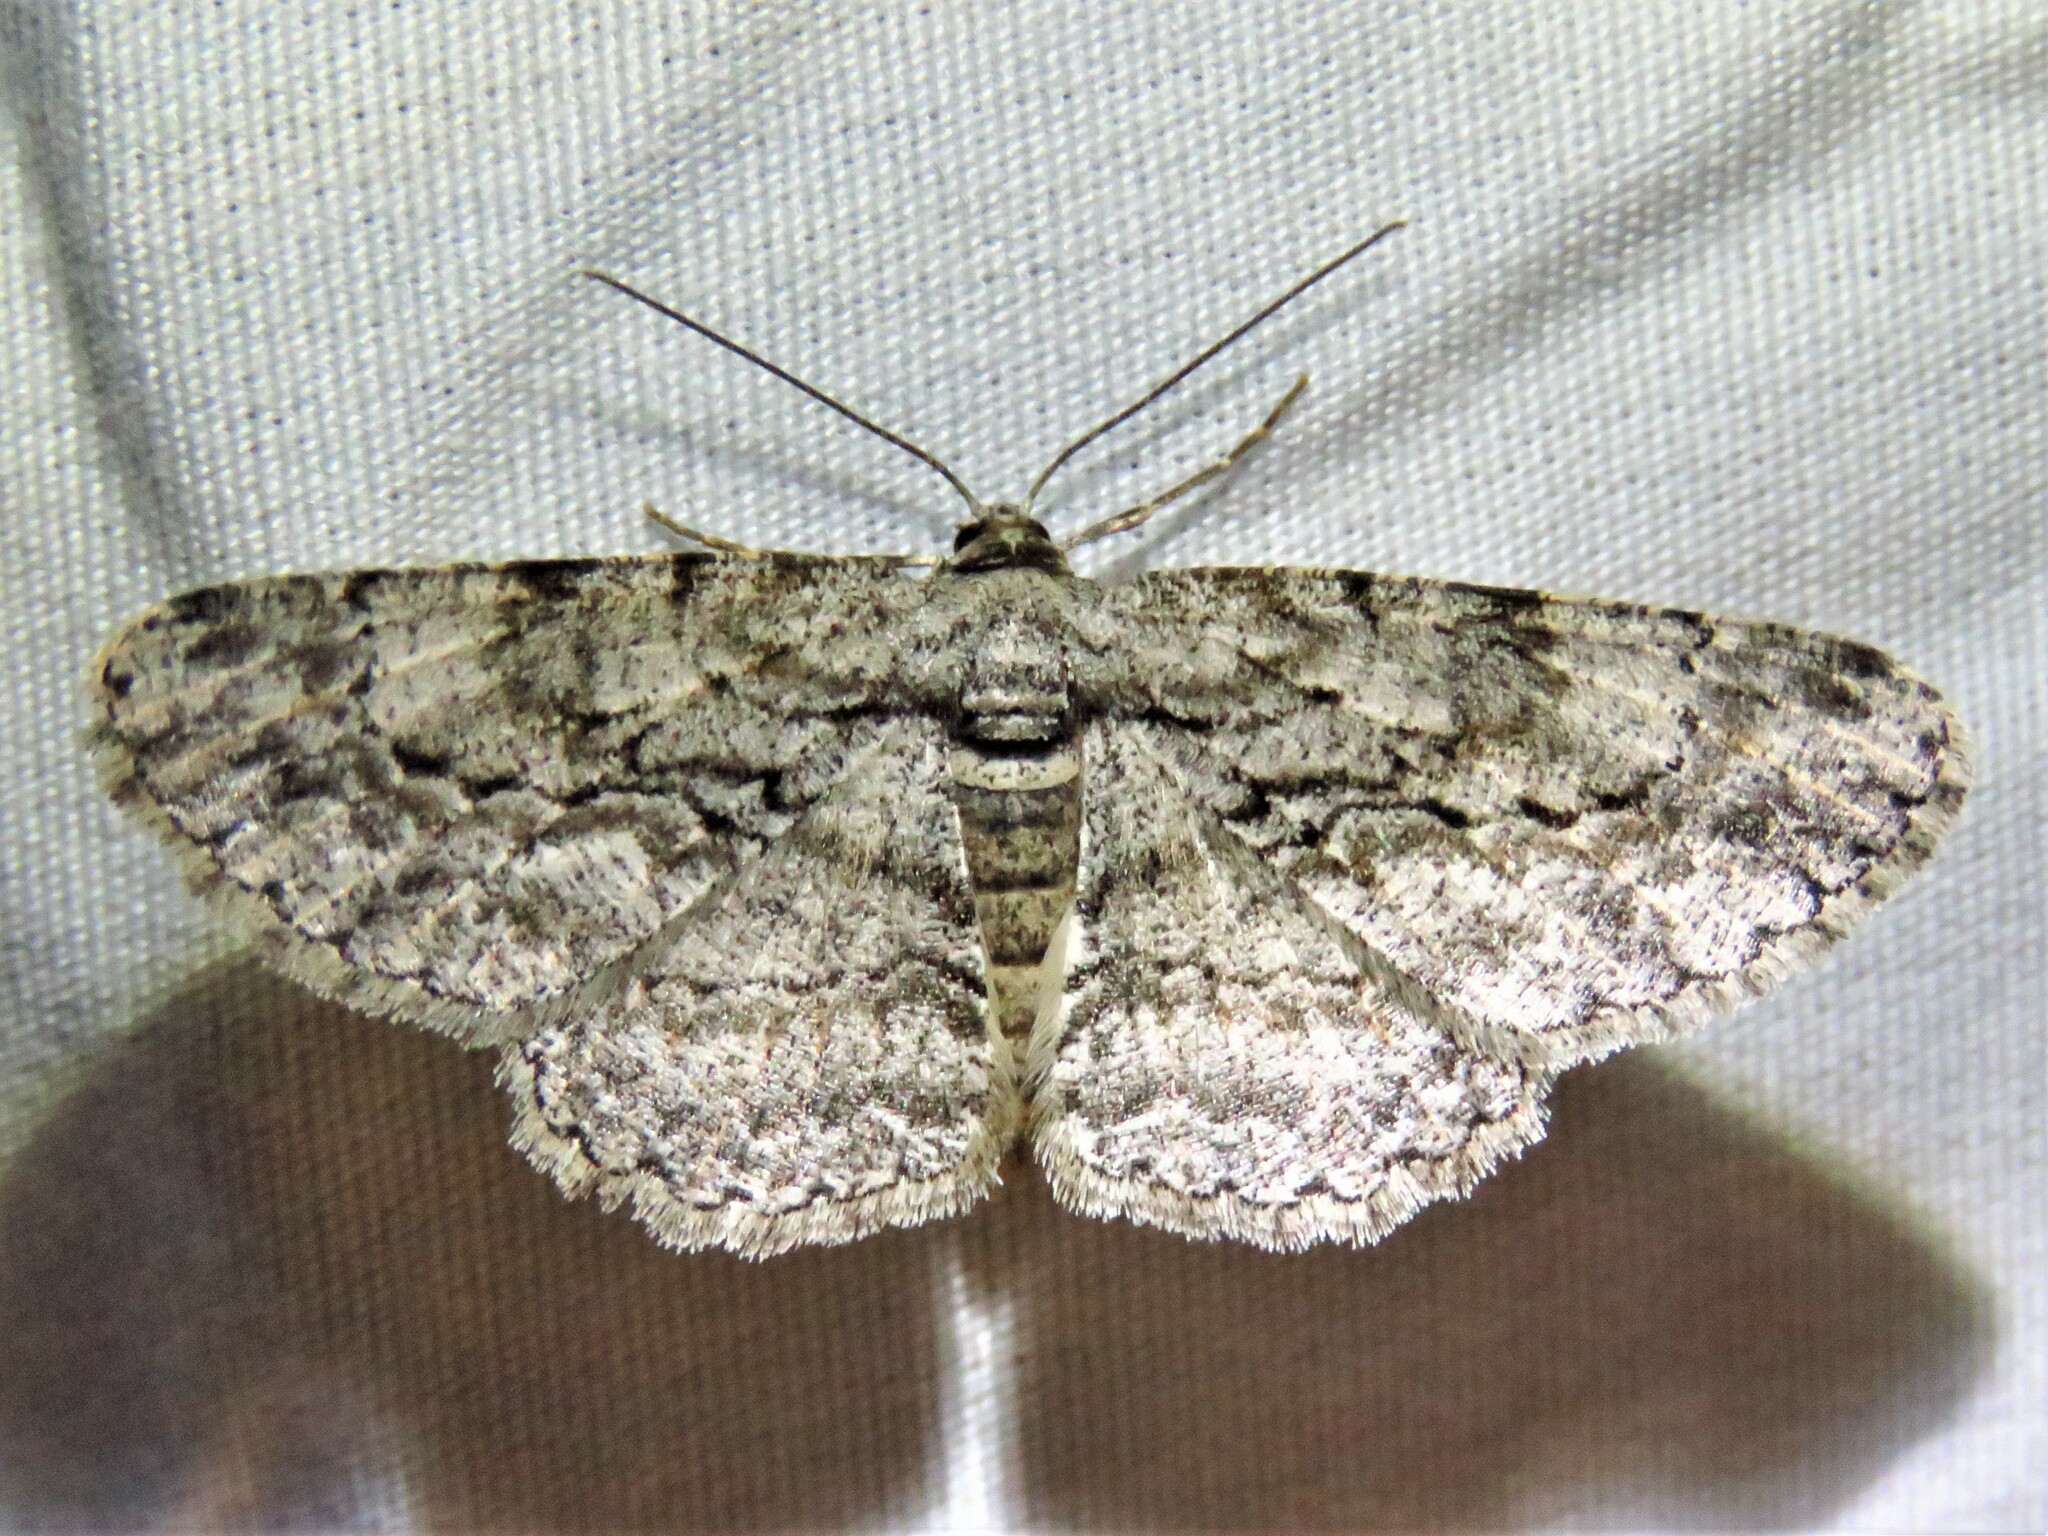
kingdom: Animalia
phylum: Arthropoda
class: Insecta
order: Lepidoptera
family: Geometridae
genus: Anavitrinella
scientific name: Anavitrinella pampinaria
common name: Common gray
